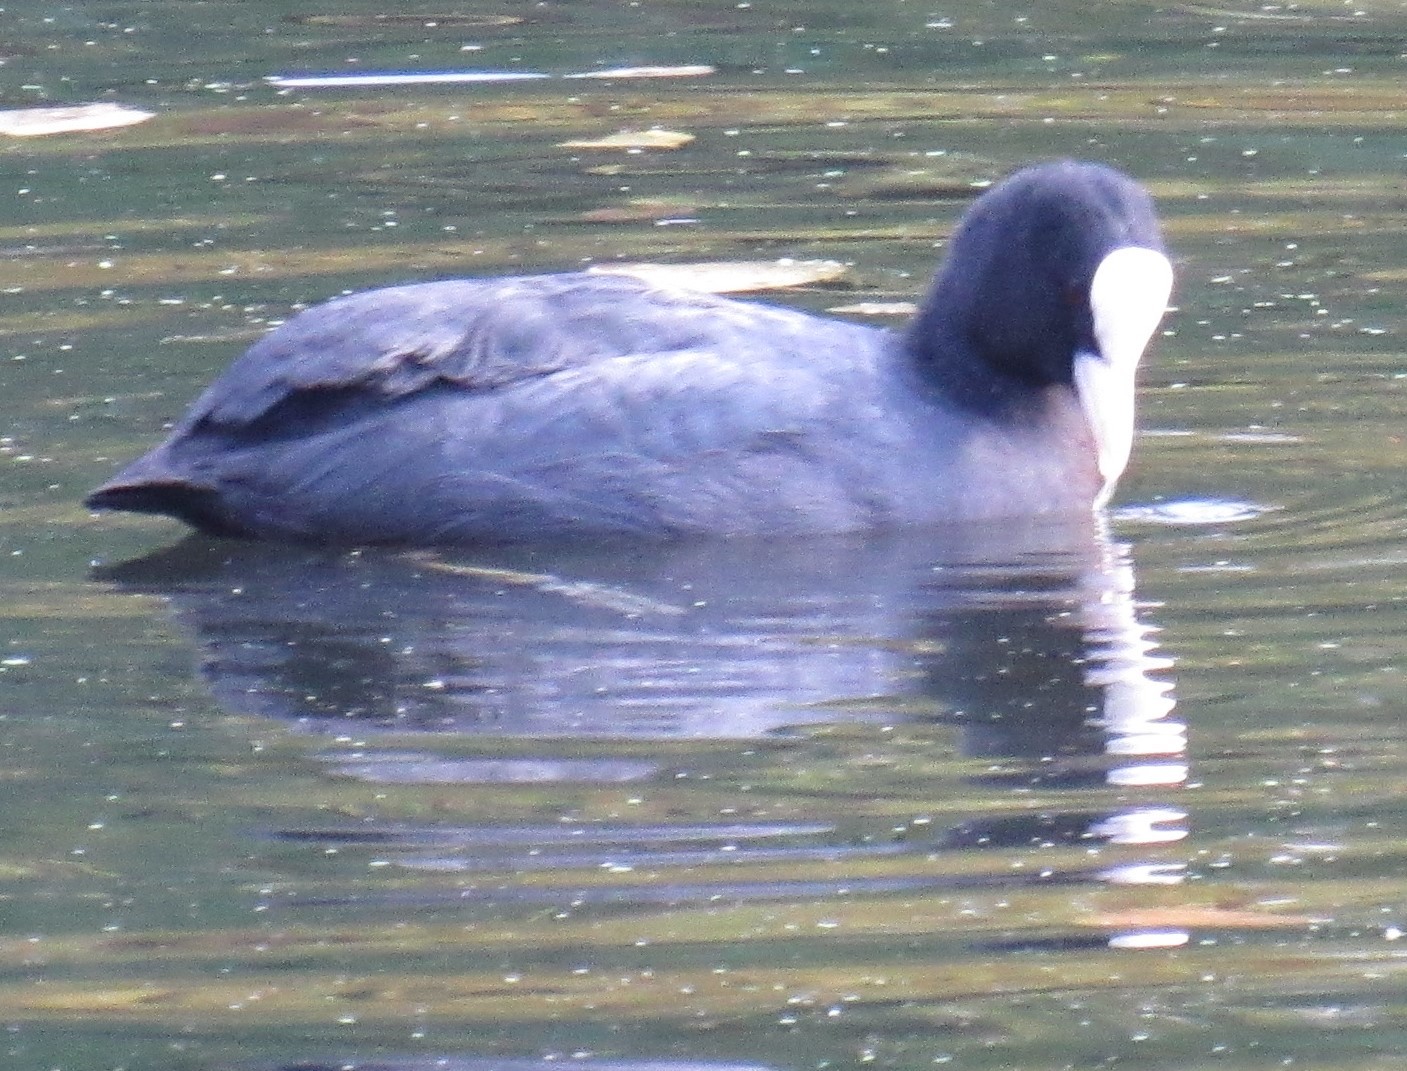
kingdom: Animalia
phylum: Chordata
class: Aves
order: Gruiformes
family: Rallidae
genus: Fulica
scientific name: Fulica atra
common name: Eurasian coot
